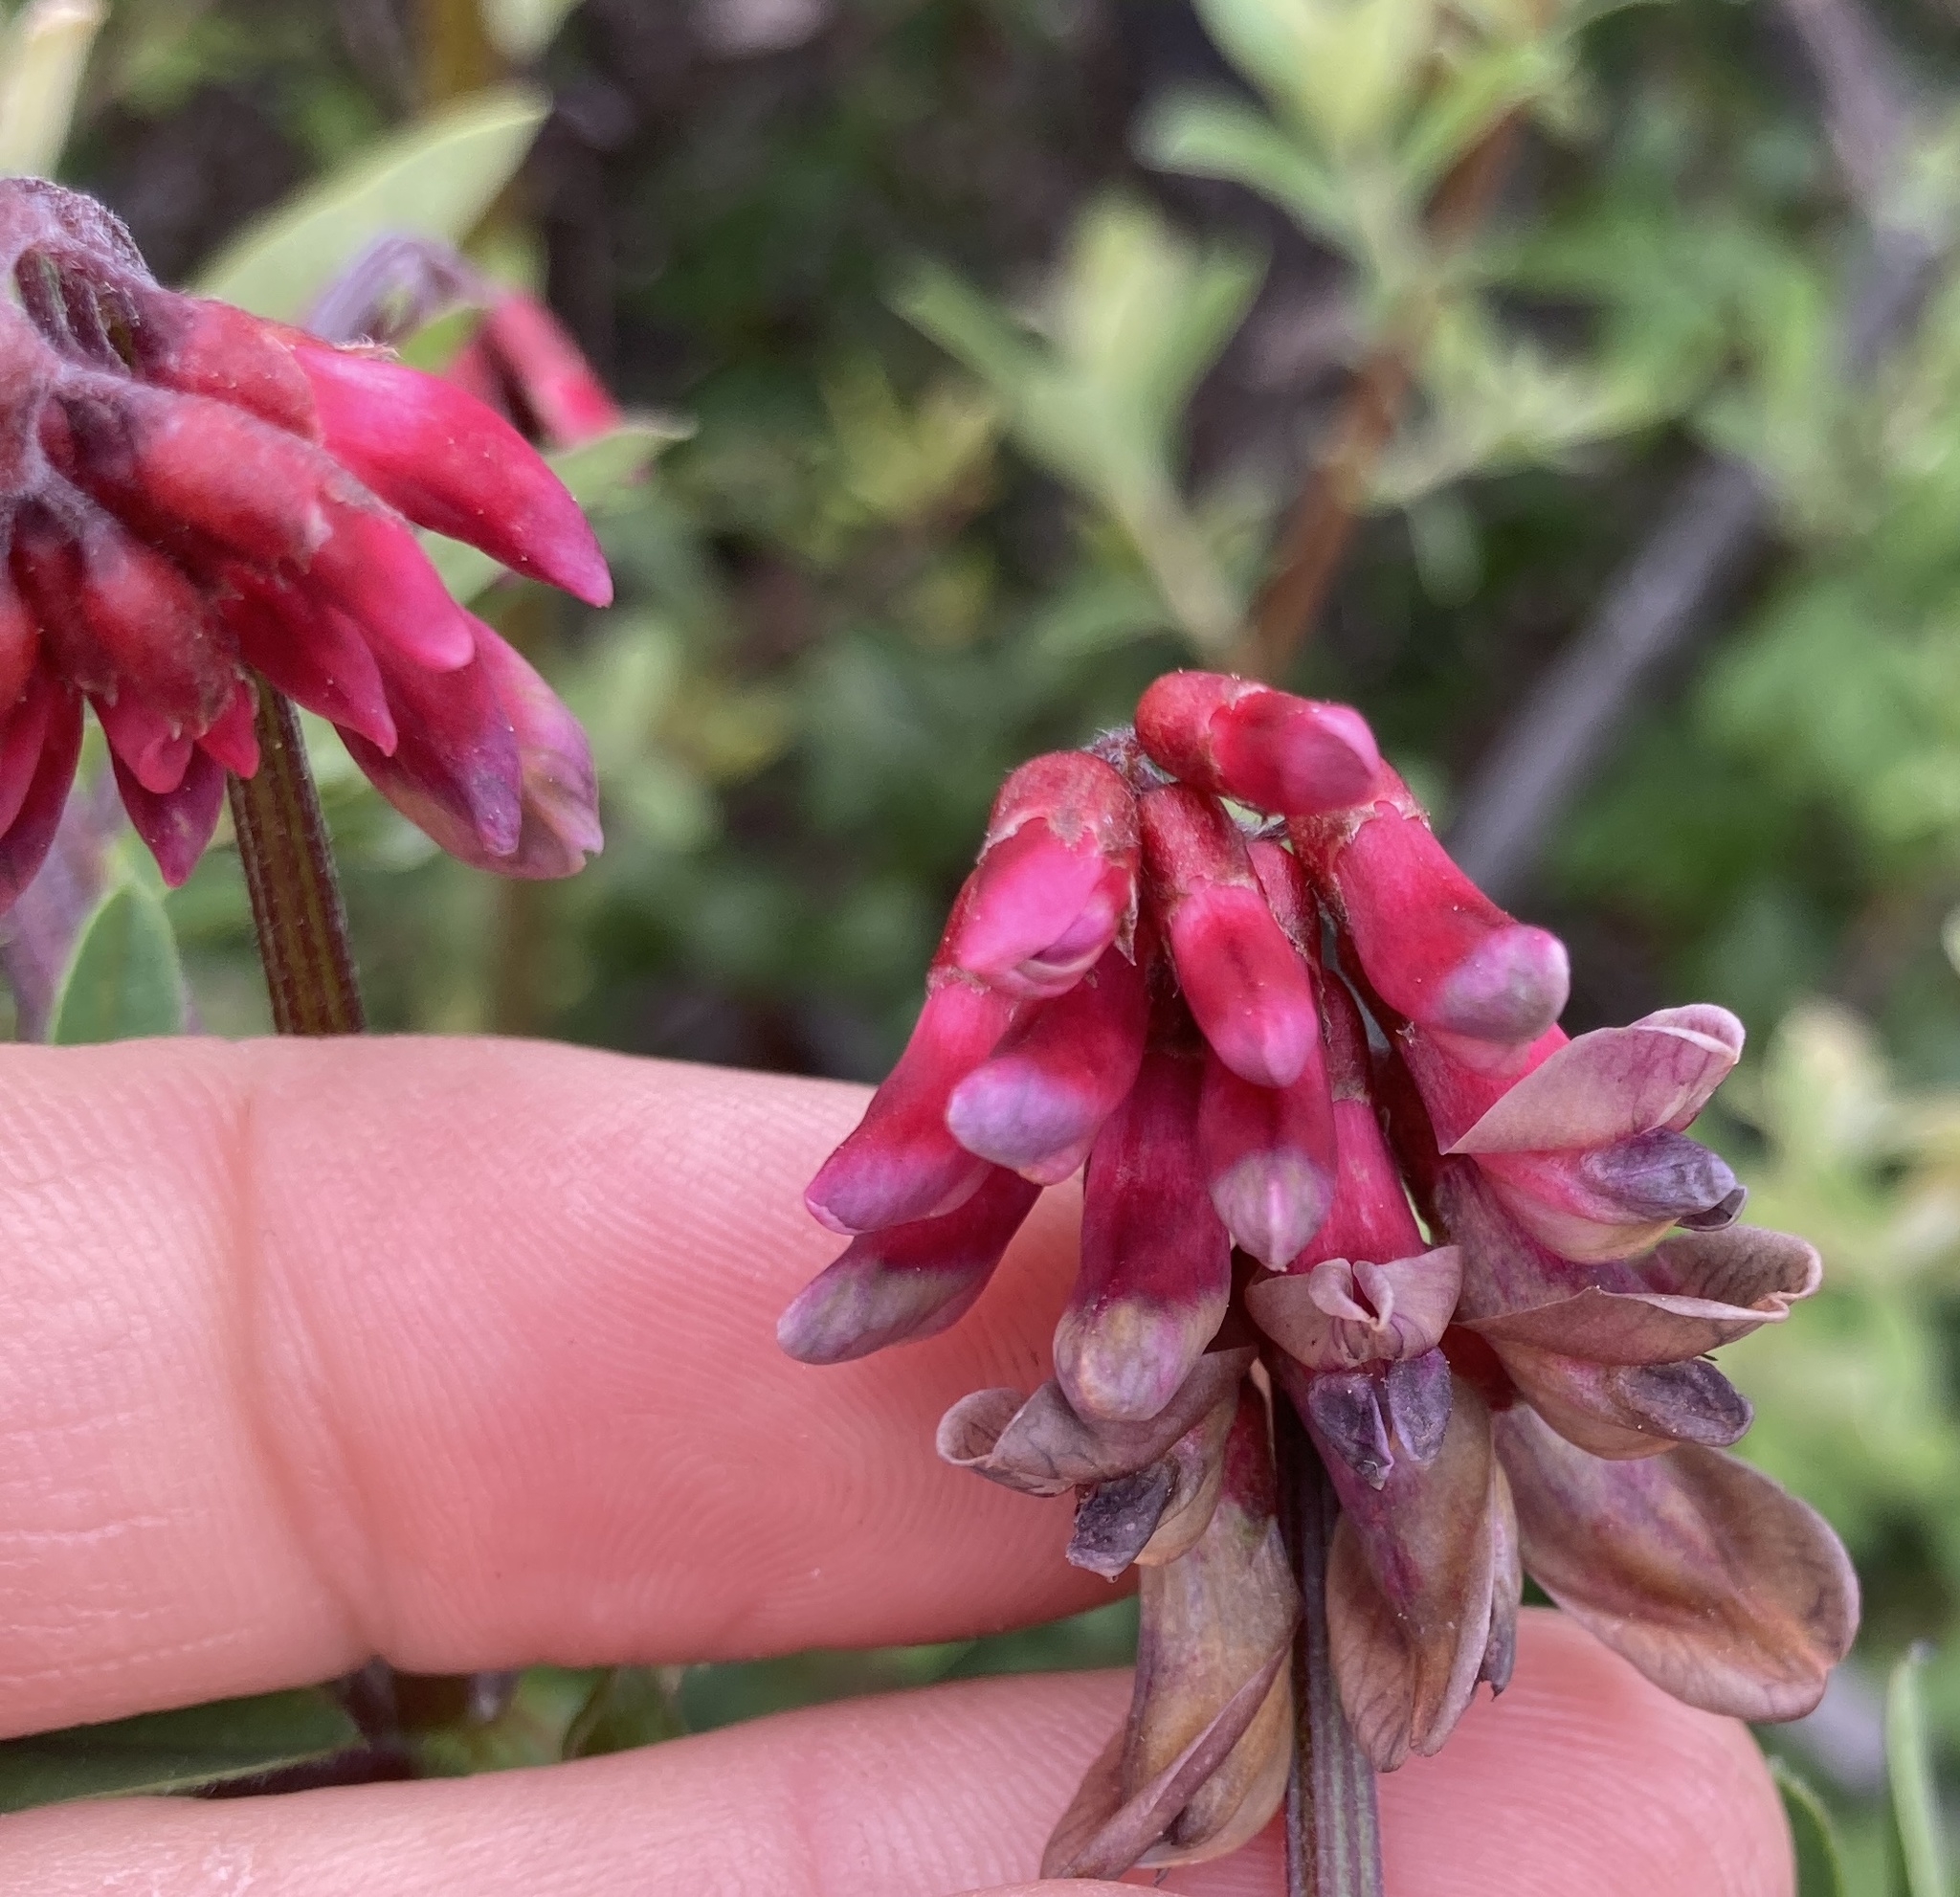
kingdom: Plantae
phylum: Tracheophyta
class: Magnoliopsida
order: Fabales
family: Fabaceae
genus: Vicia
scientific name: Vicia
